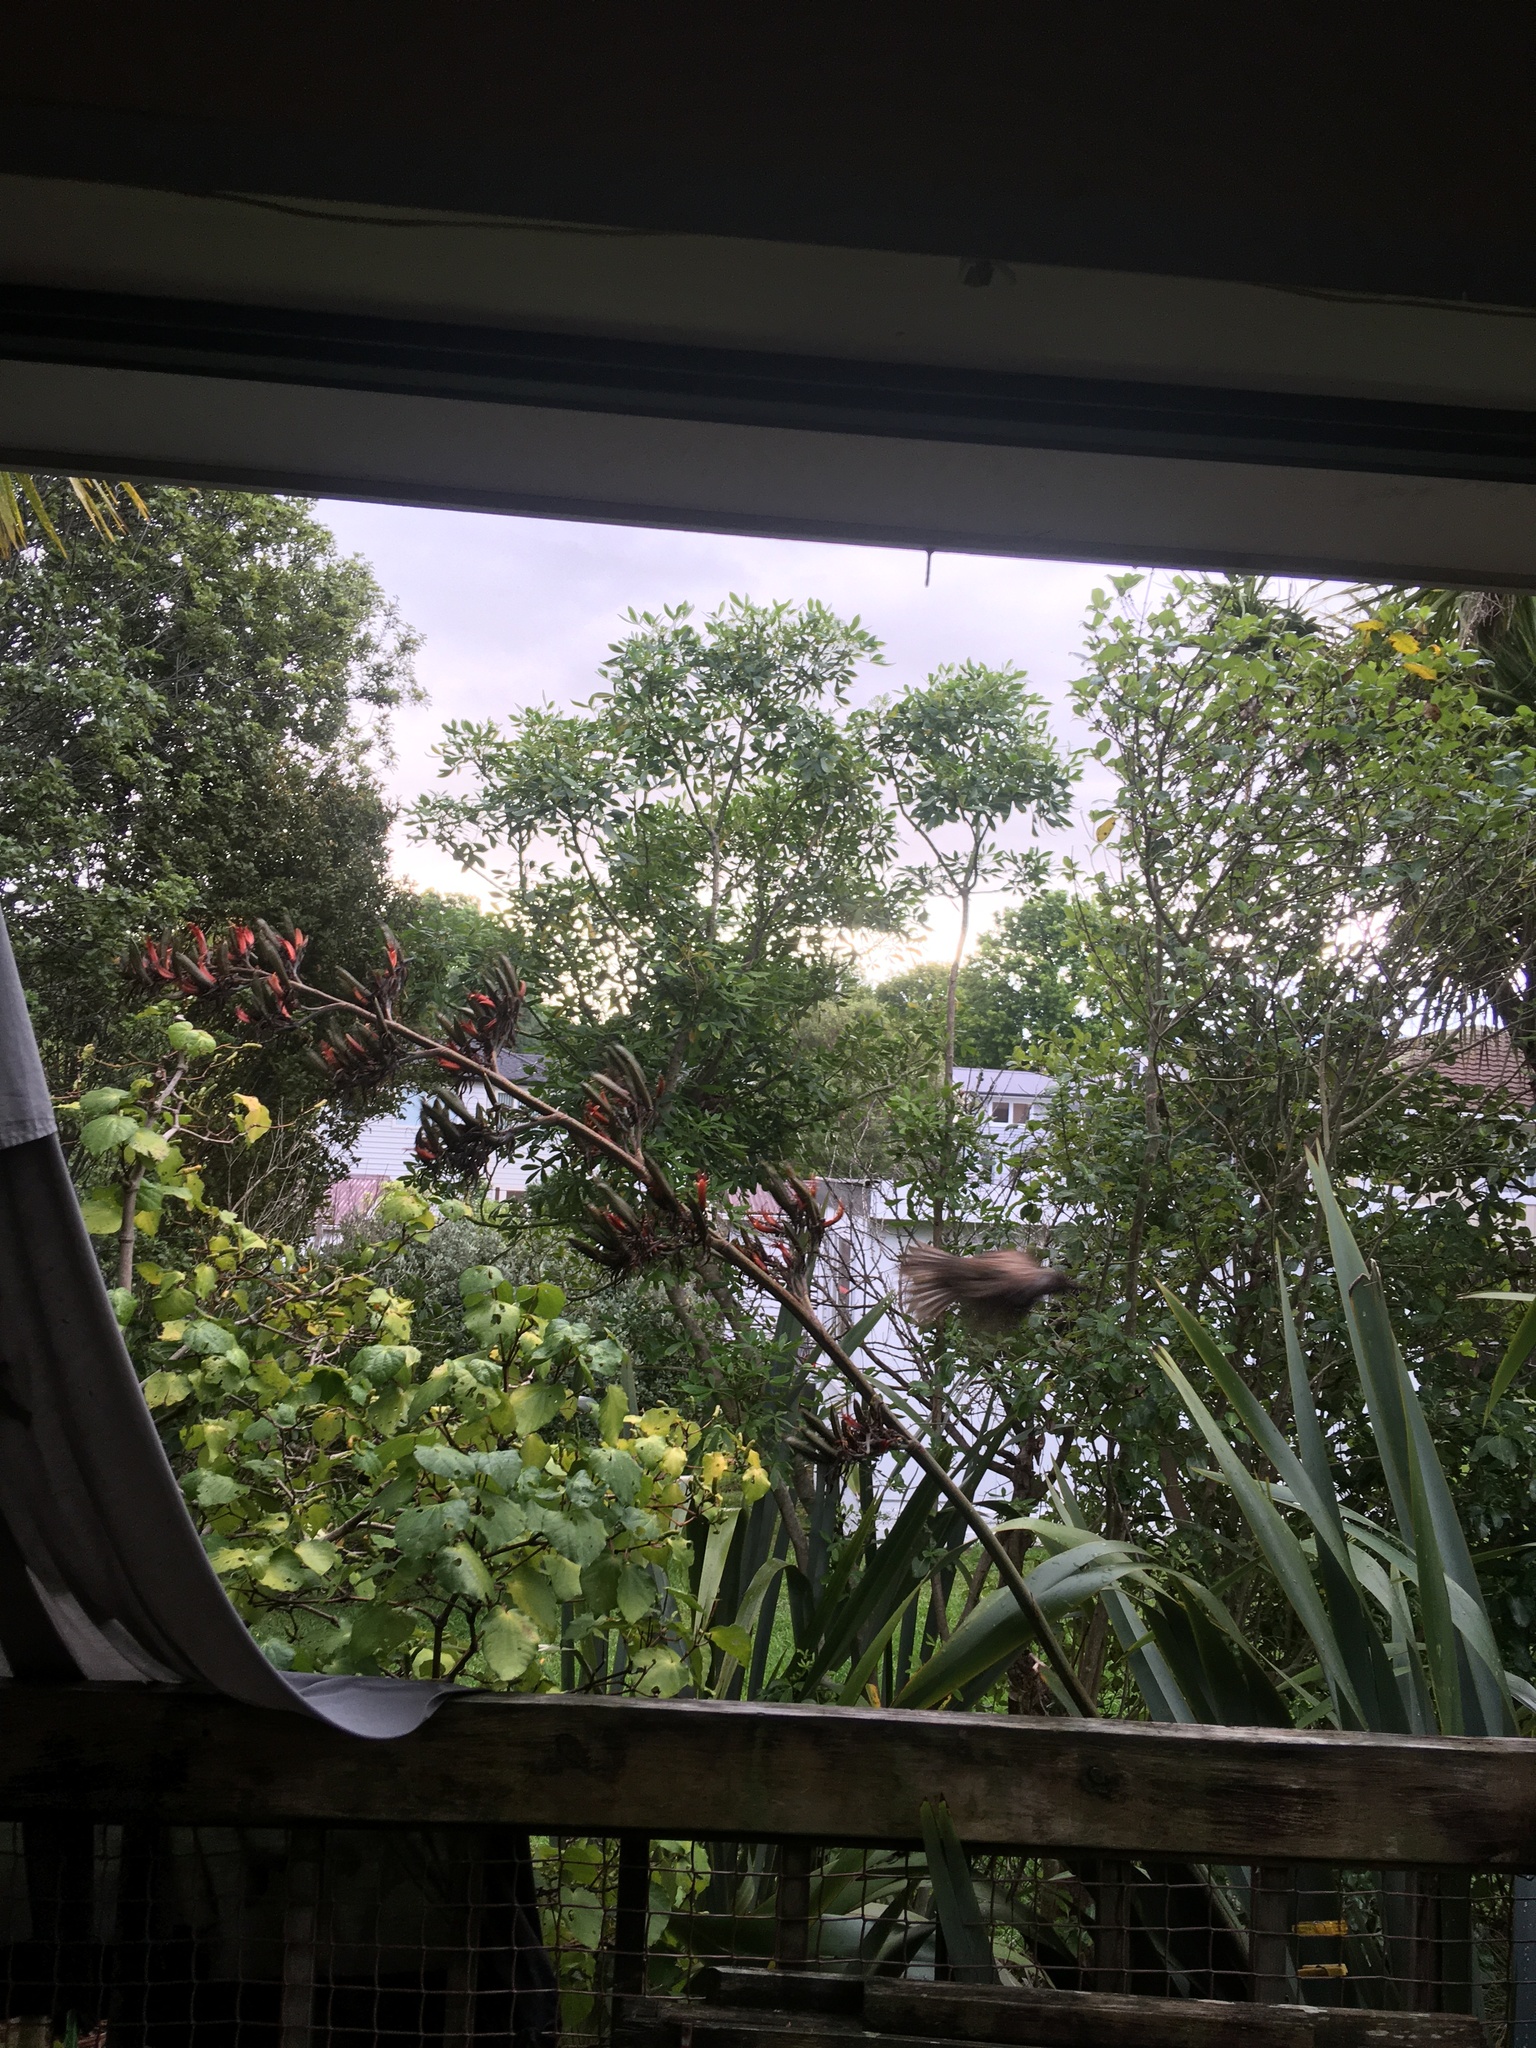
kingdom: Animalia
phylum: Chordata
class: Aves
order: Passeriformes
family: Meliphagidae
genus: Prosthemadera
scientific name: Prosthemadera novaeseelandiae
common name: Tui
